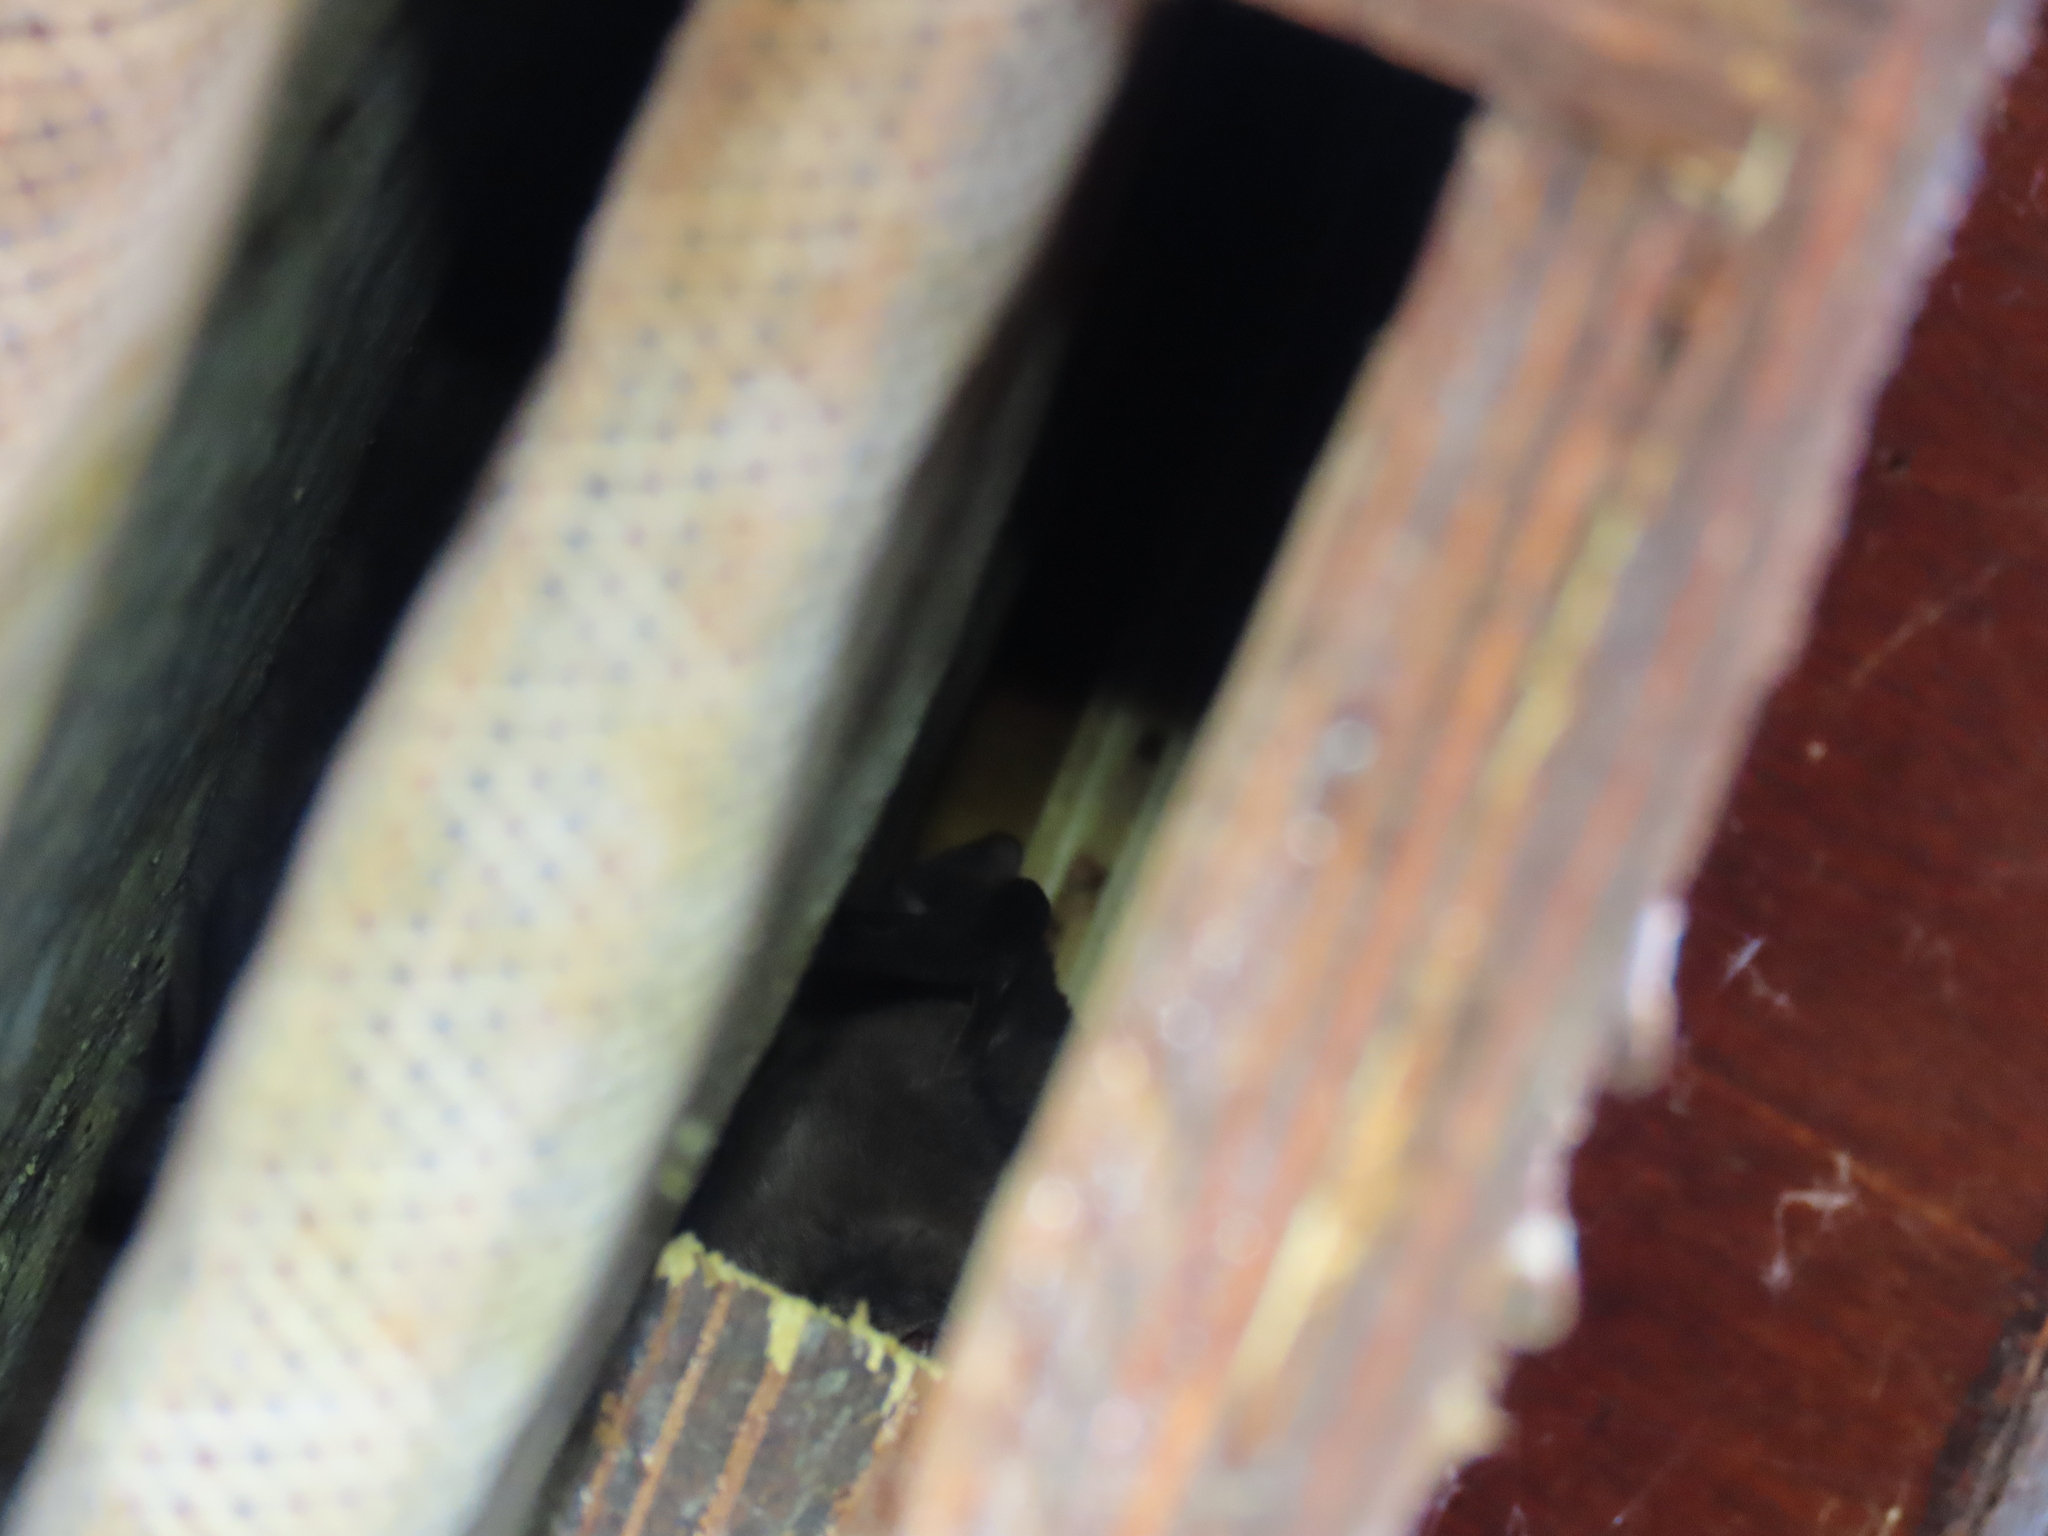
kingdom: Animalia
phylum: Chordata
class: Mammalia
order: Chiroptera
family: Molossidae
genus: Tadarida
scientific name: Tadarida aegyptiaca
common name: Egyptian free-tailed bat
